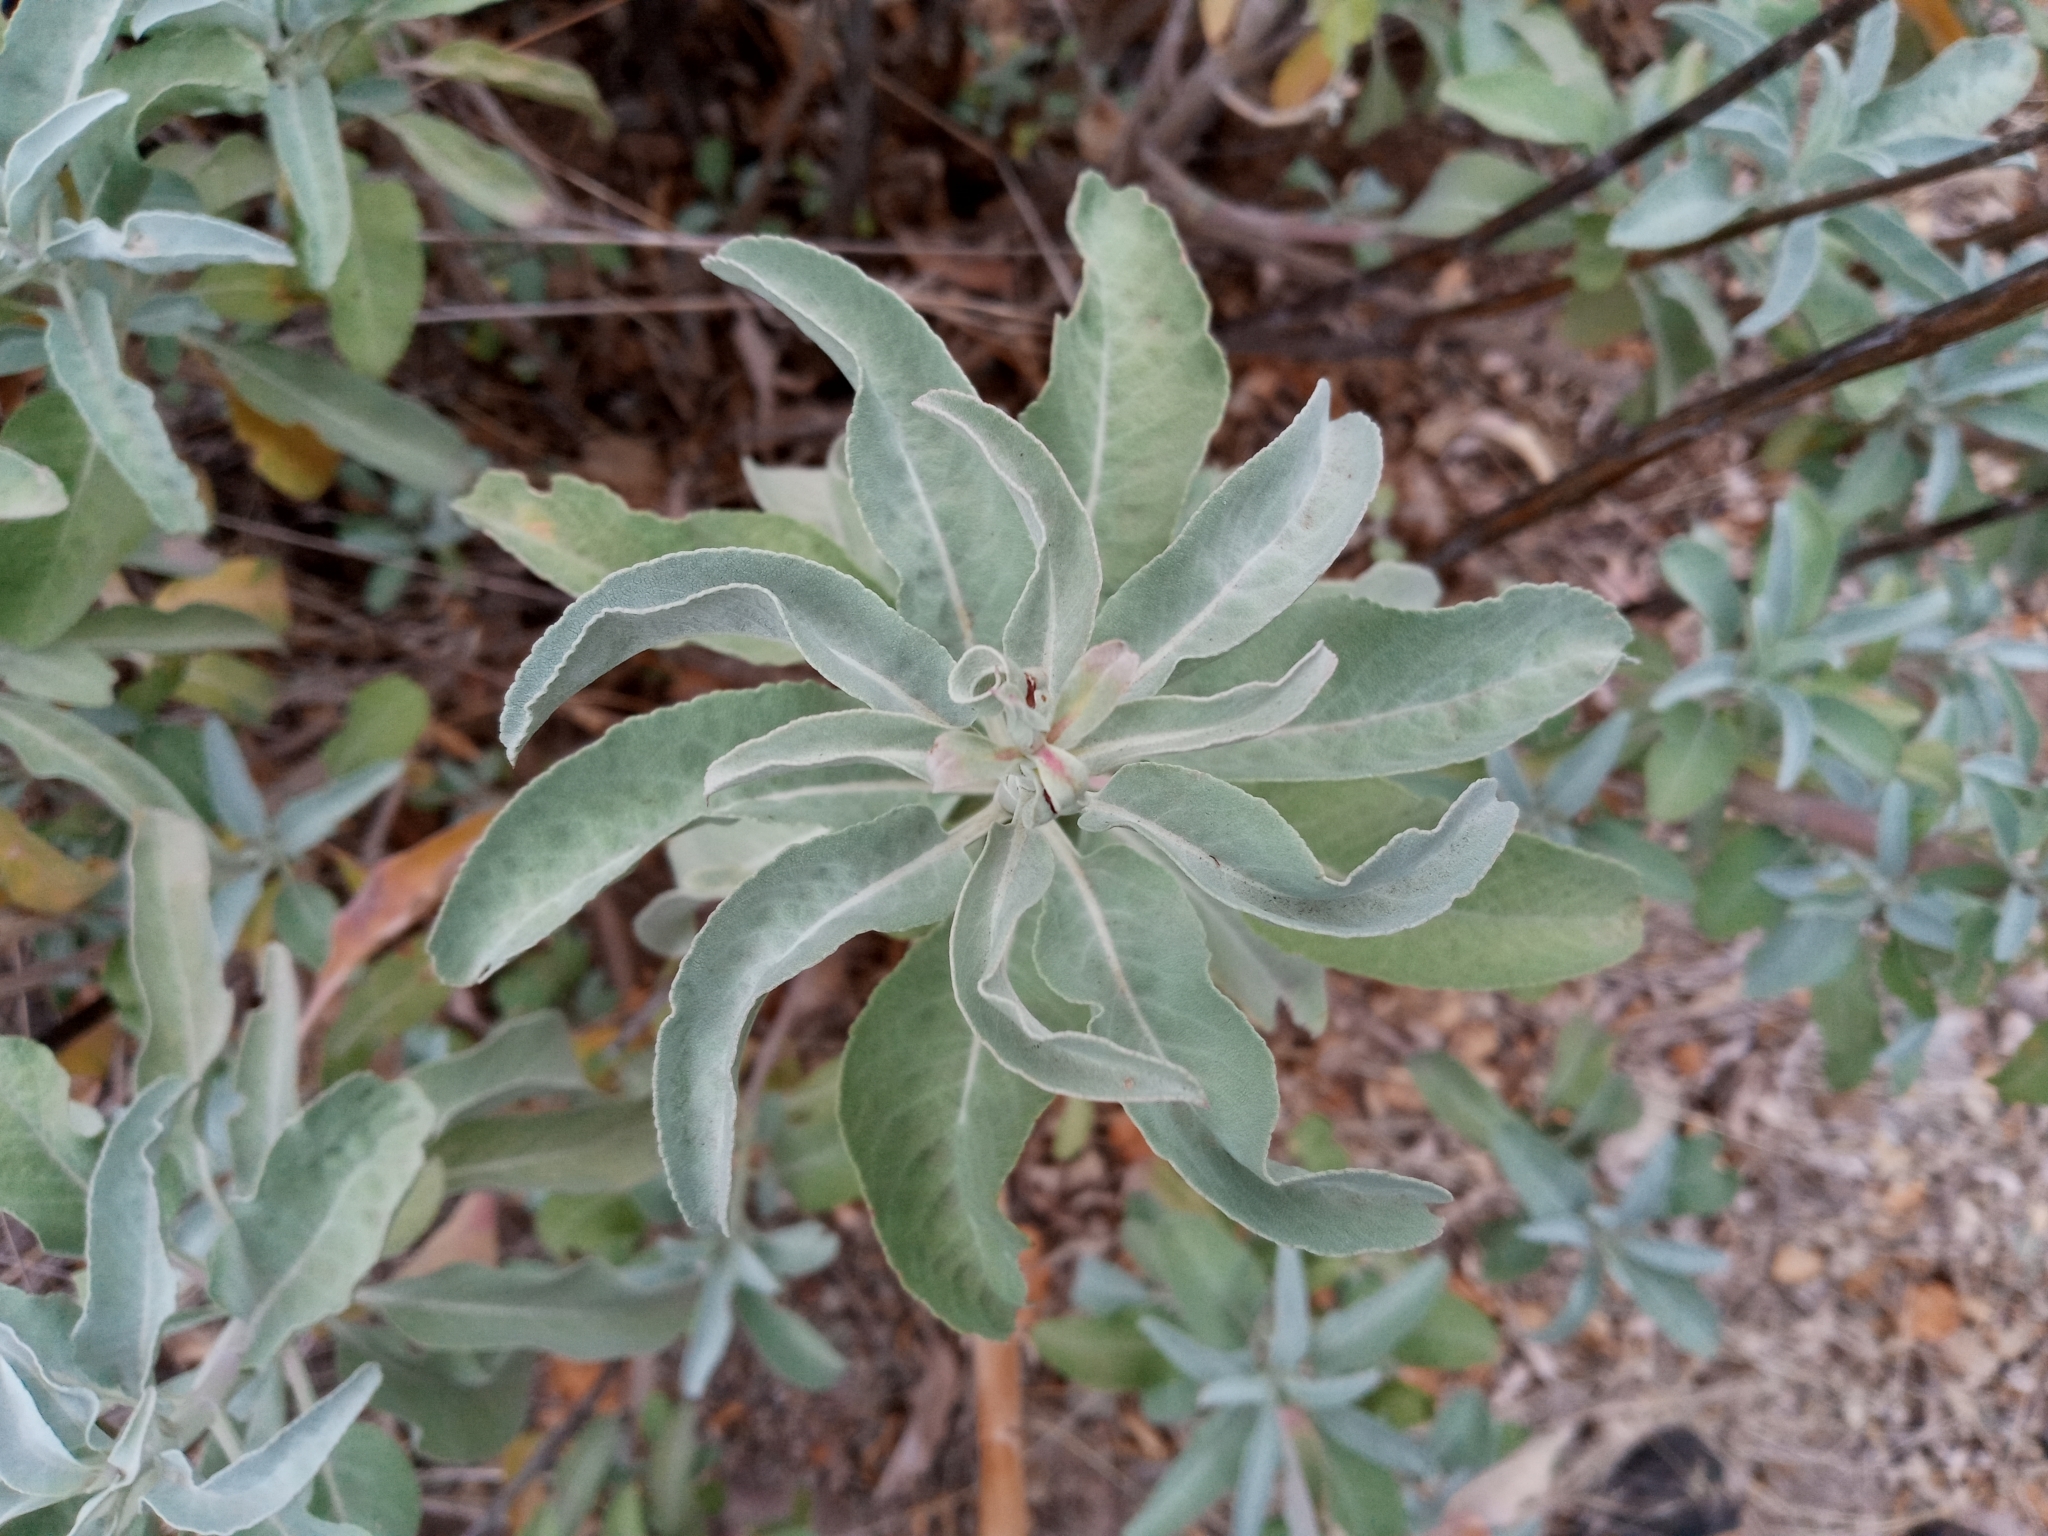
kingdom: Plantae
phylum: Tracheophyta
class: Magnoliopsida
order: Lamiales
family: Lamiaceae
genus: Salvia
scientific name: Salvia apiana
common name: White sage
